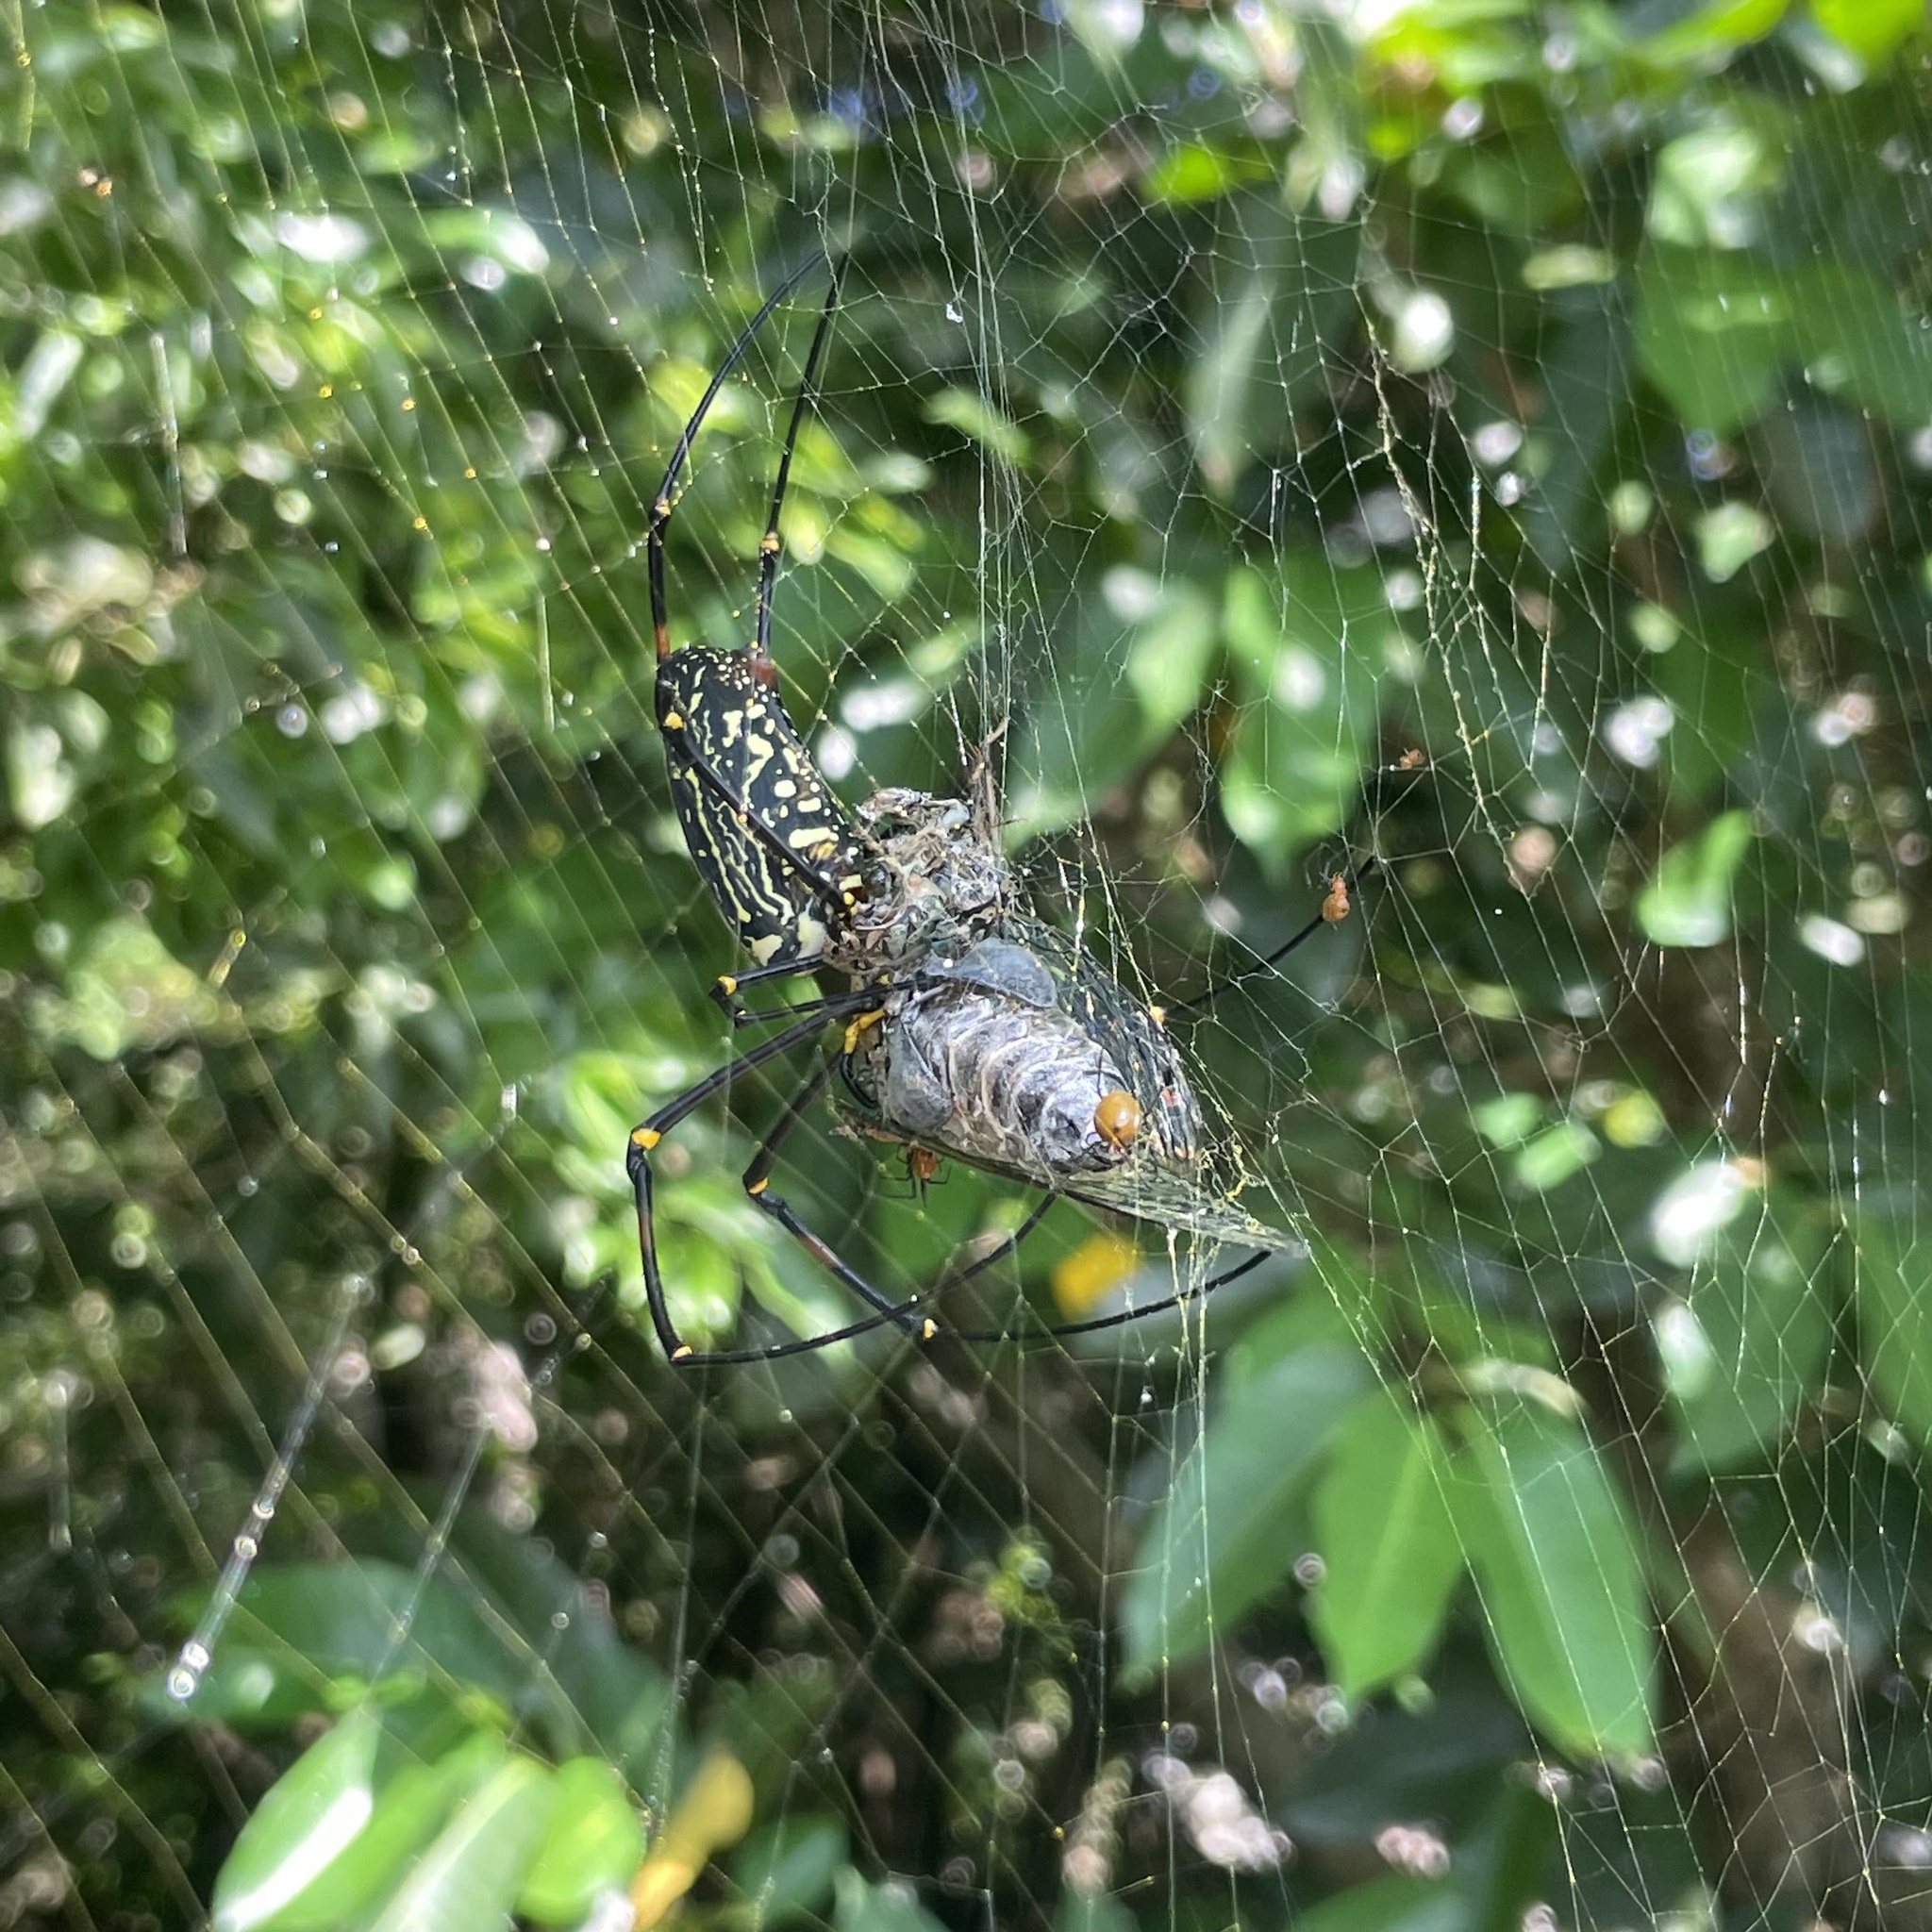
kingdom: Animalia
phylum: Arthropoda
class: Arachnida
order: Araneae
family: Araneidae
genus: Nephila
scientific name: Nephila pilipes
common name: Giant golden orb weaver
